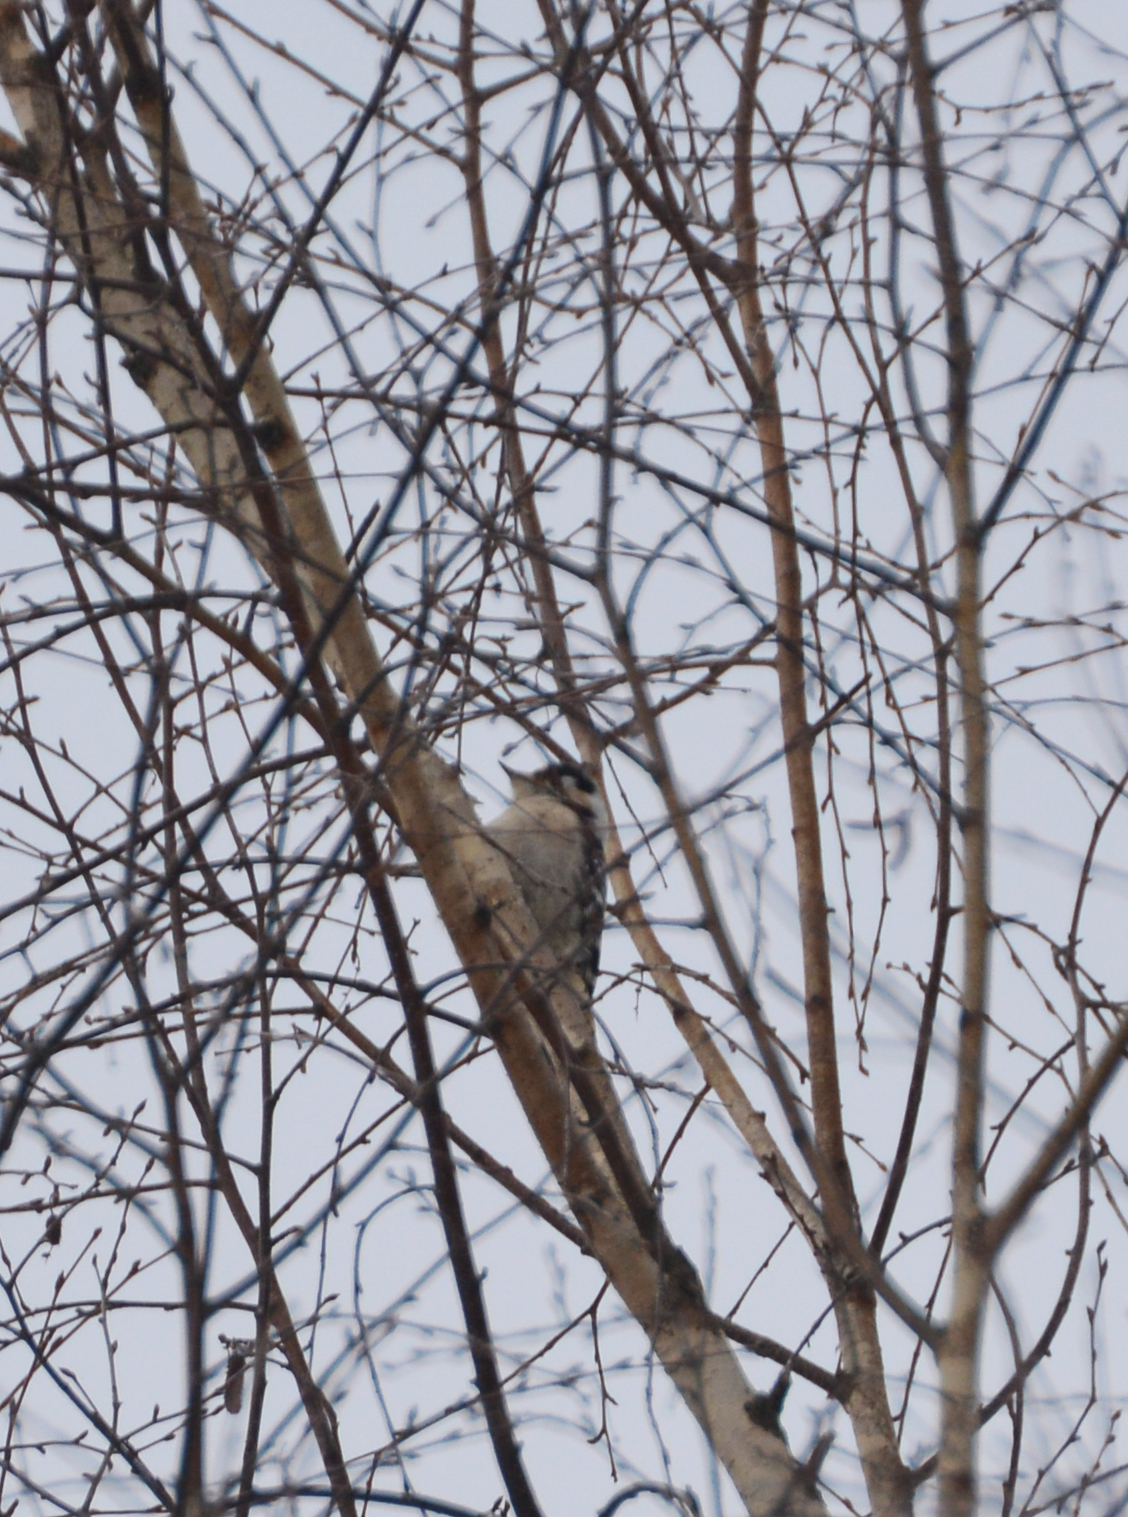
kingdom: Animalia
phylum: Chordata
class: Aves
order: Piciformes
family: Picidae
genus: Dryobates
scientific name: Dryobates minor
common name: Lesser spotted woodpecker
